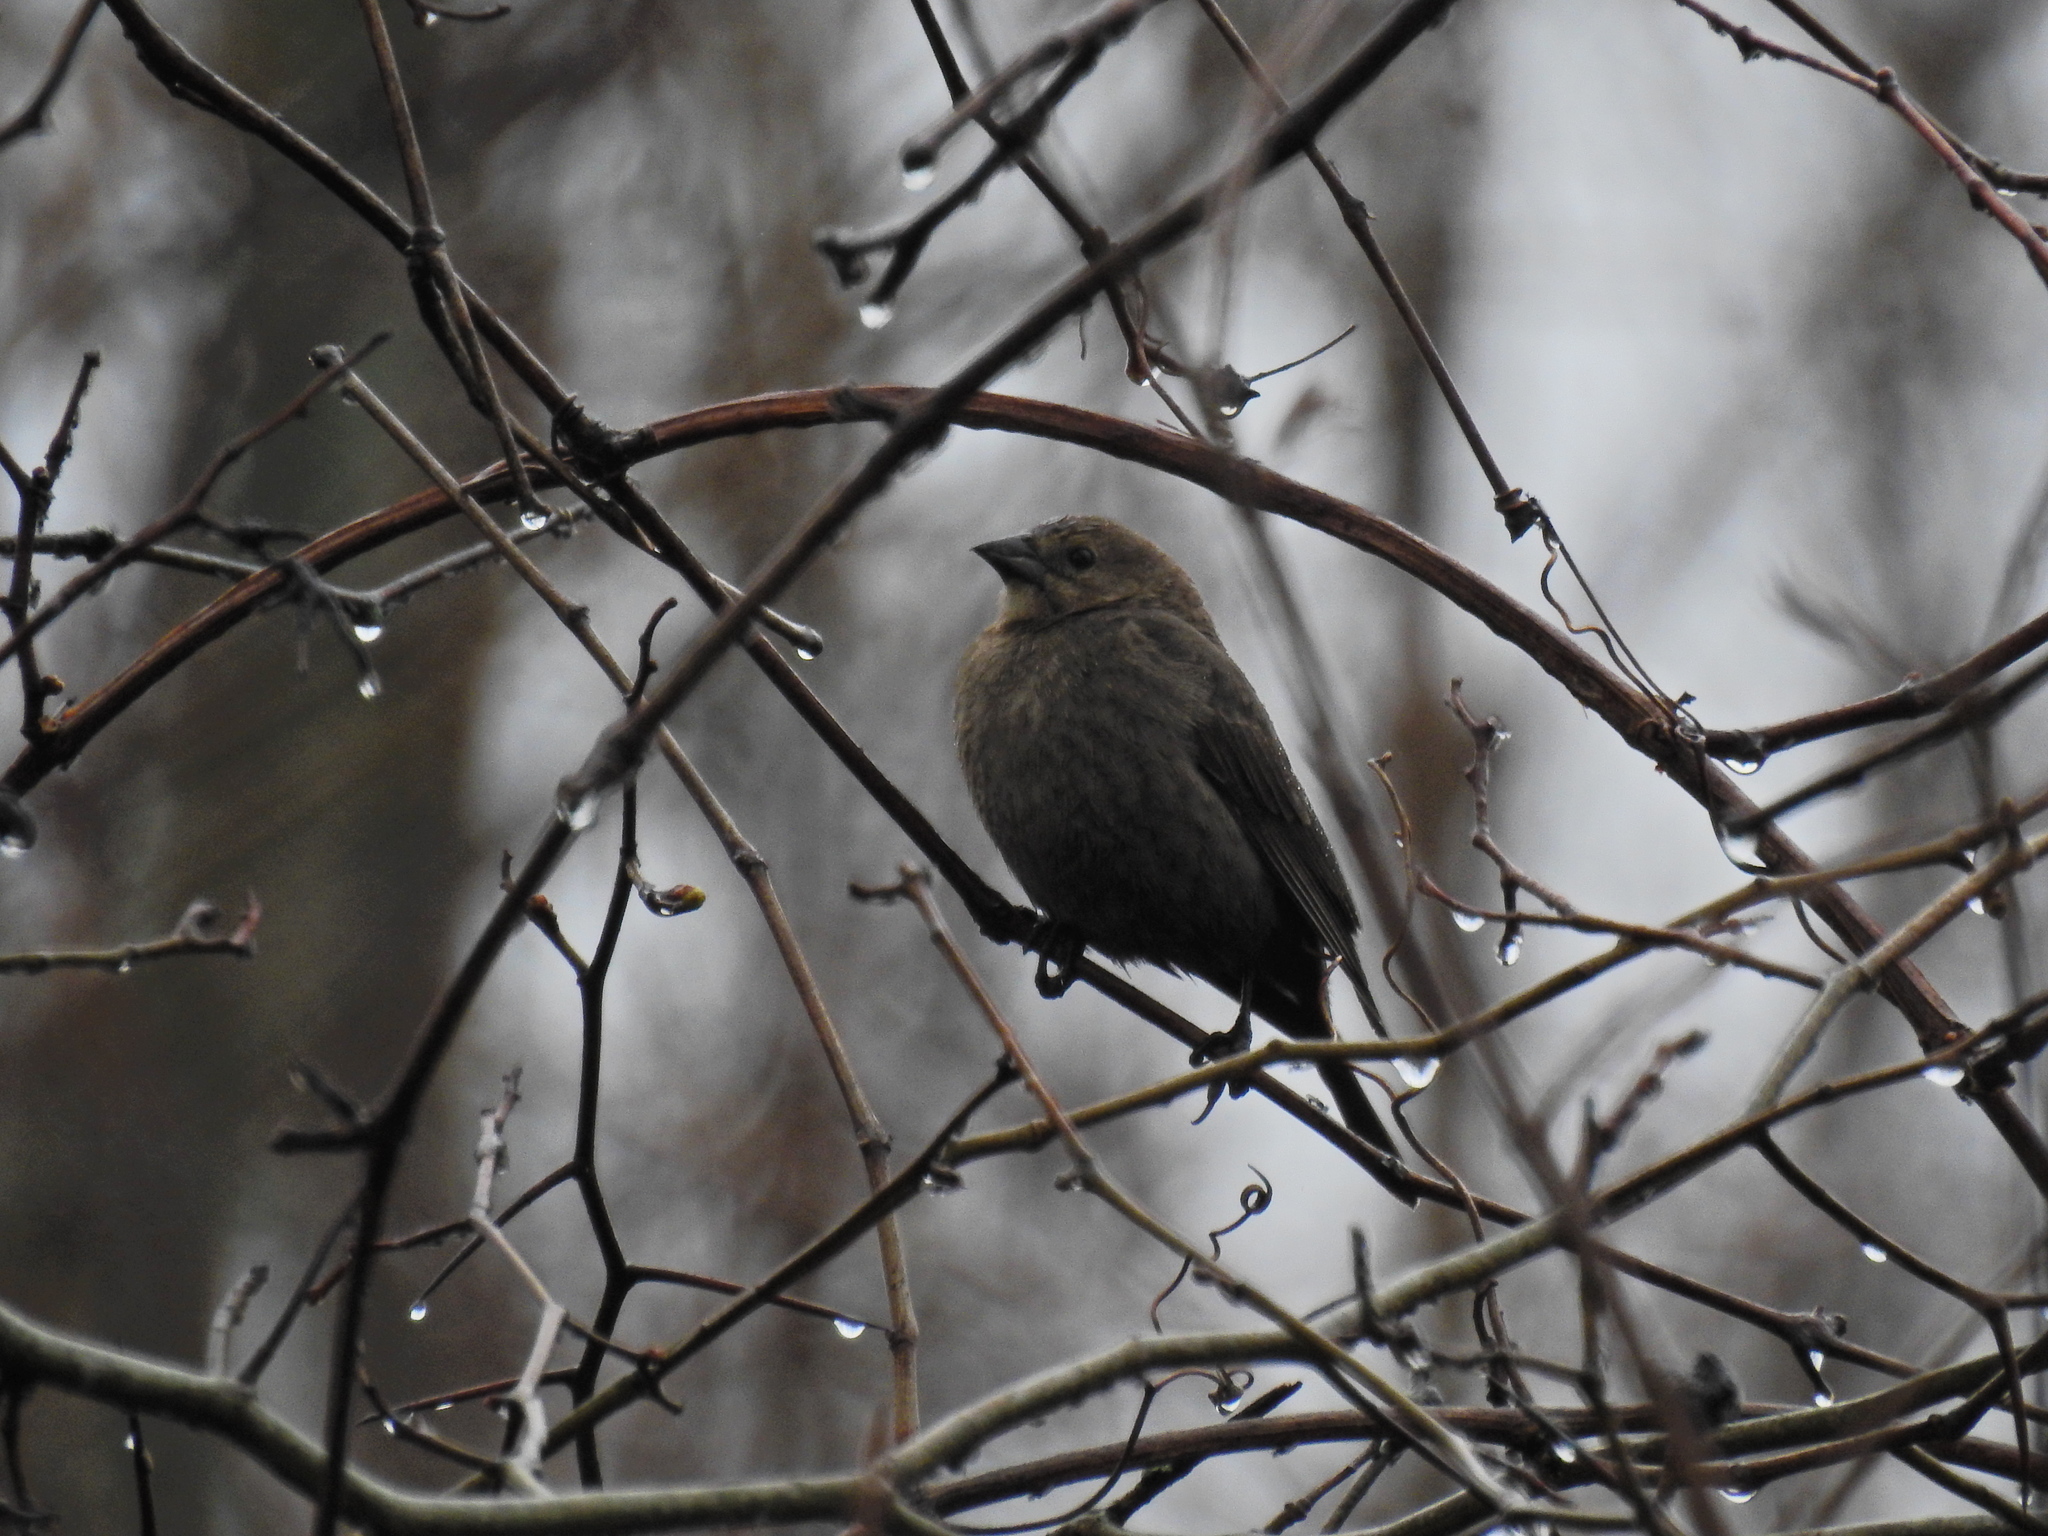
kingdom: Animalia
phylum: Chordata
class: Aves
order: Passeriformes
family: Icteridae
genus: Molothrus
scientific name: Molothrus ater
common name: Brown-headed cowbird
